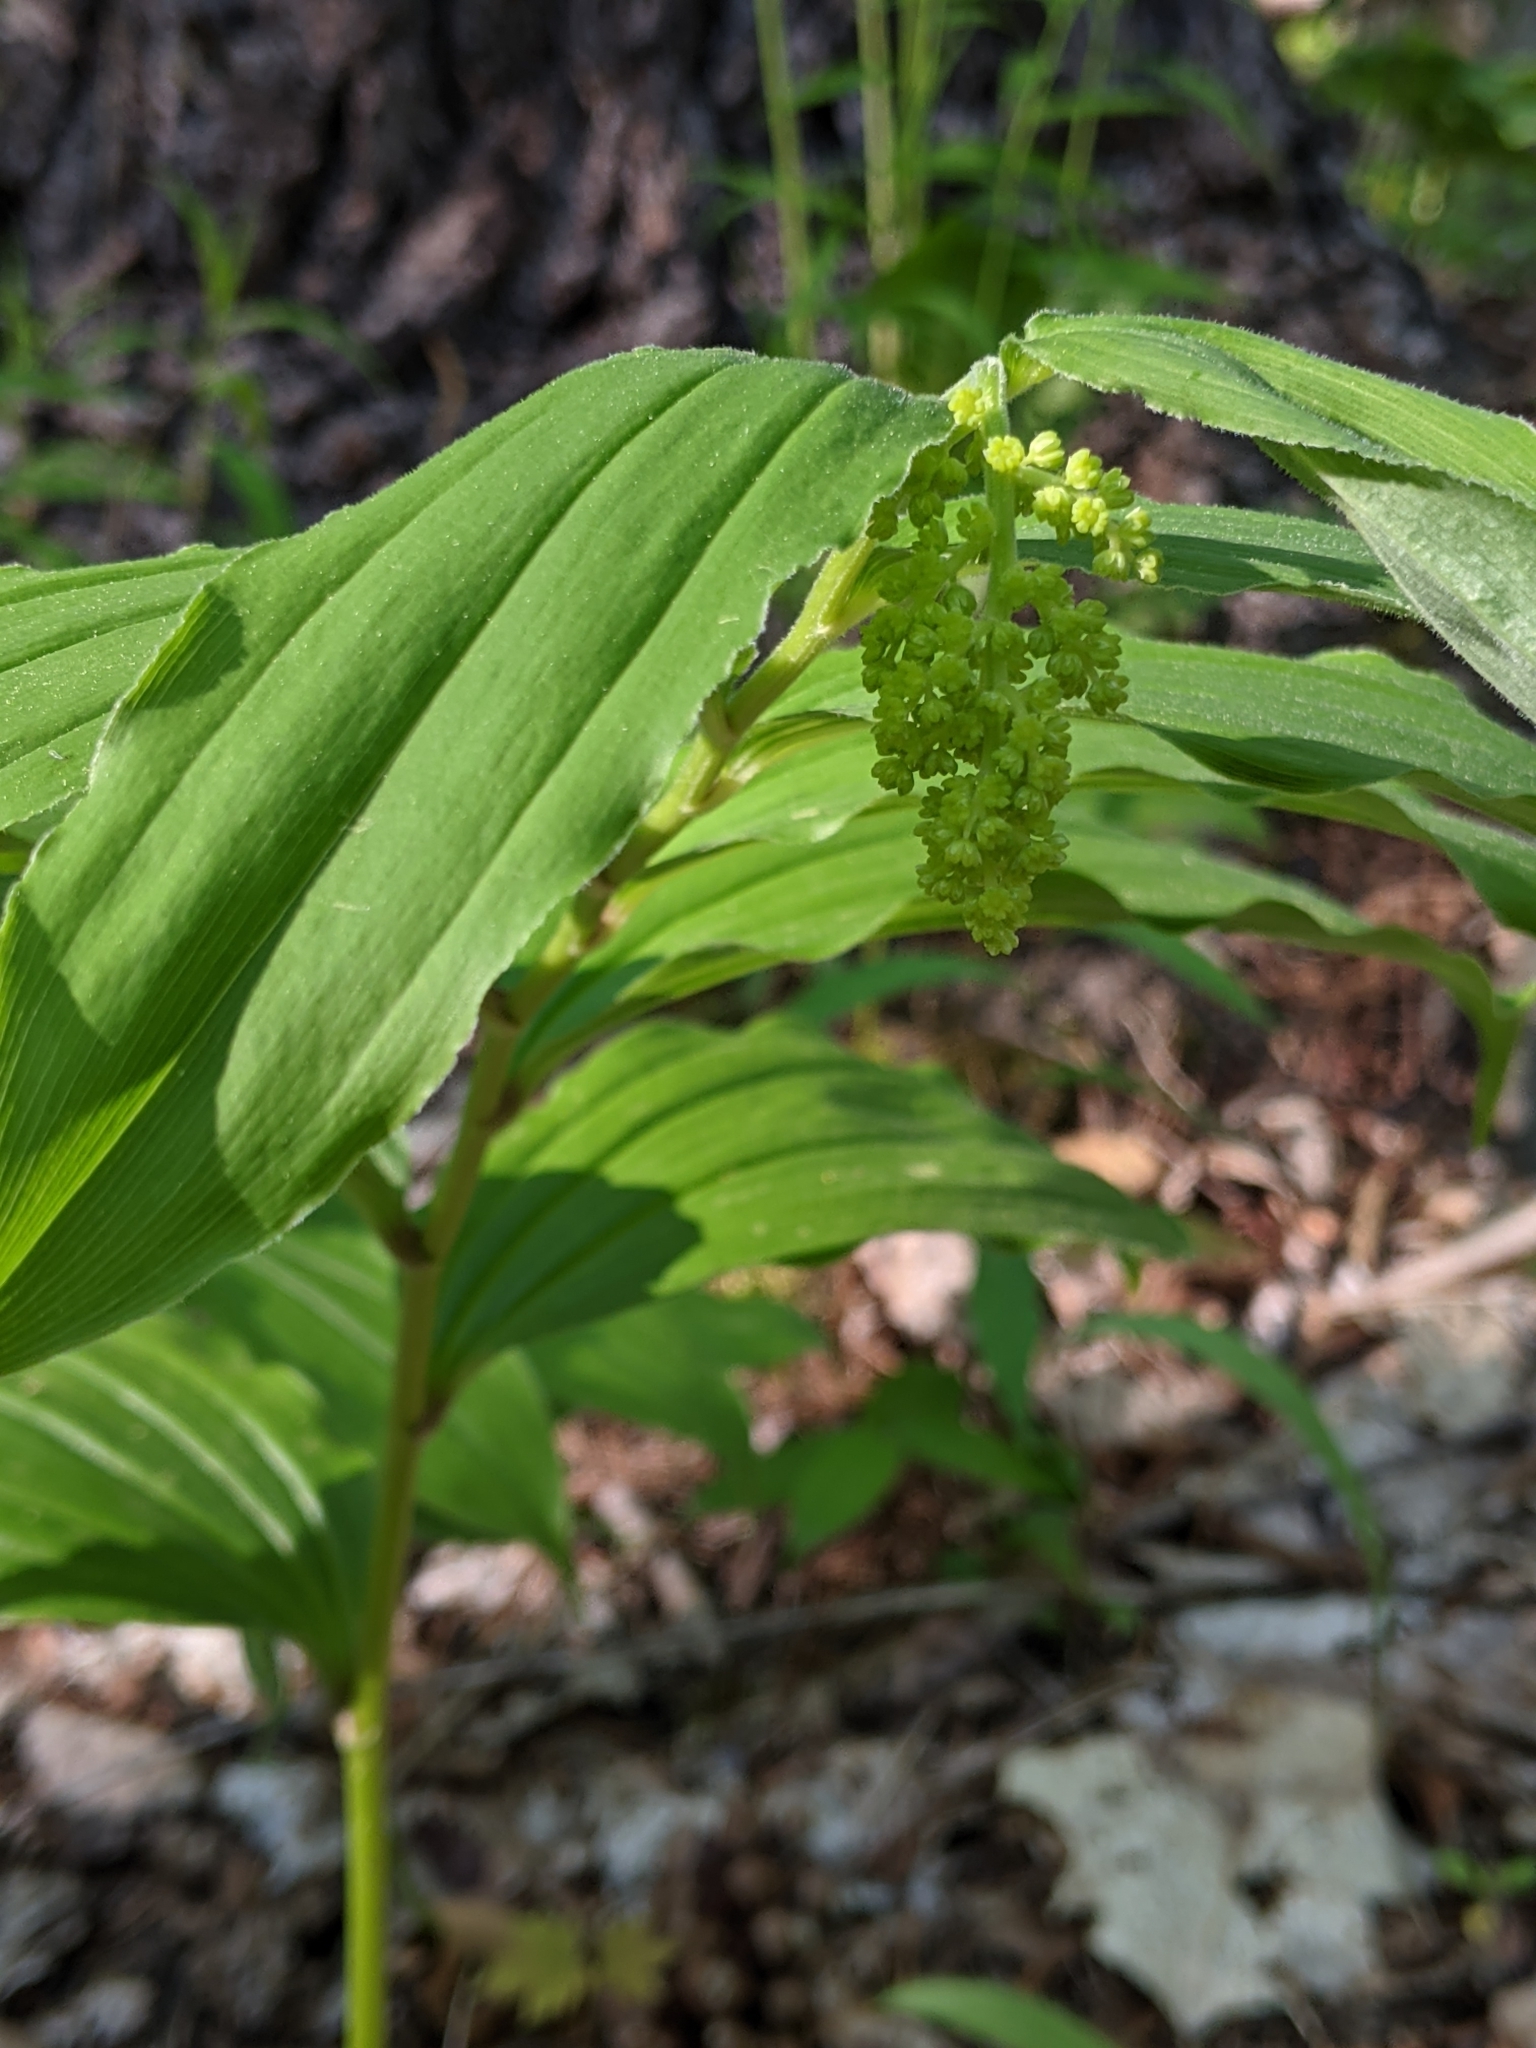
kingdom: Plantae
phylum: Tracheophyta
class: Liliopsida
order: Asparagales
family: Asparagaceae
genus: Maianthemum
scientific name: Maianthemum racemosum
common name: False spikenard
